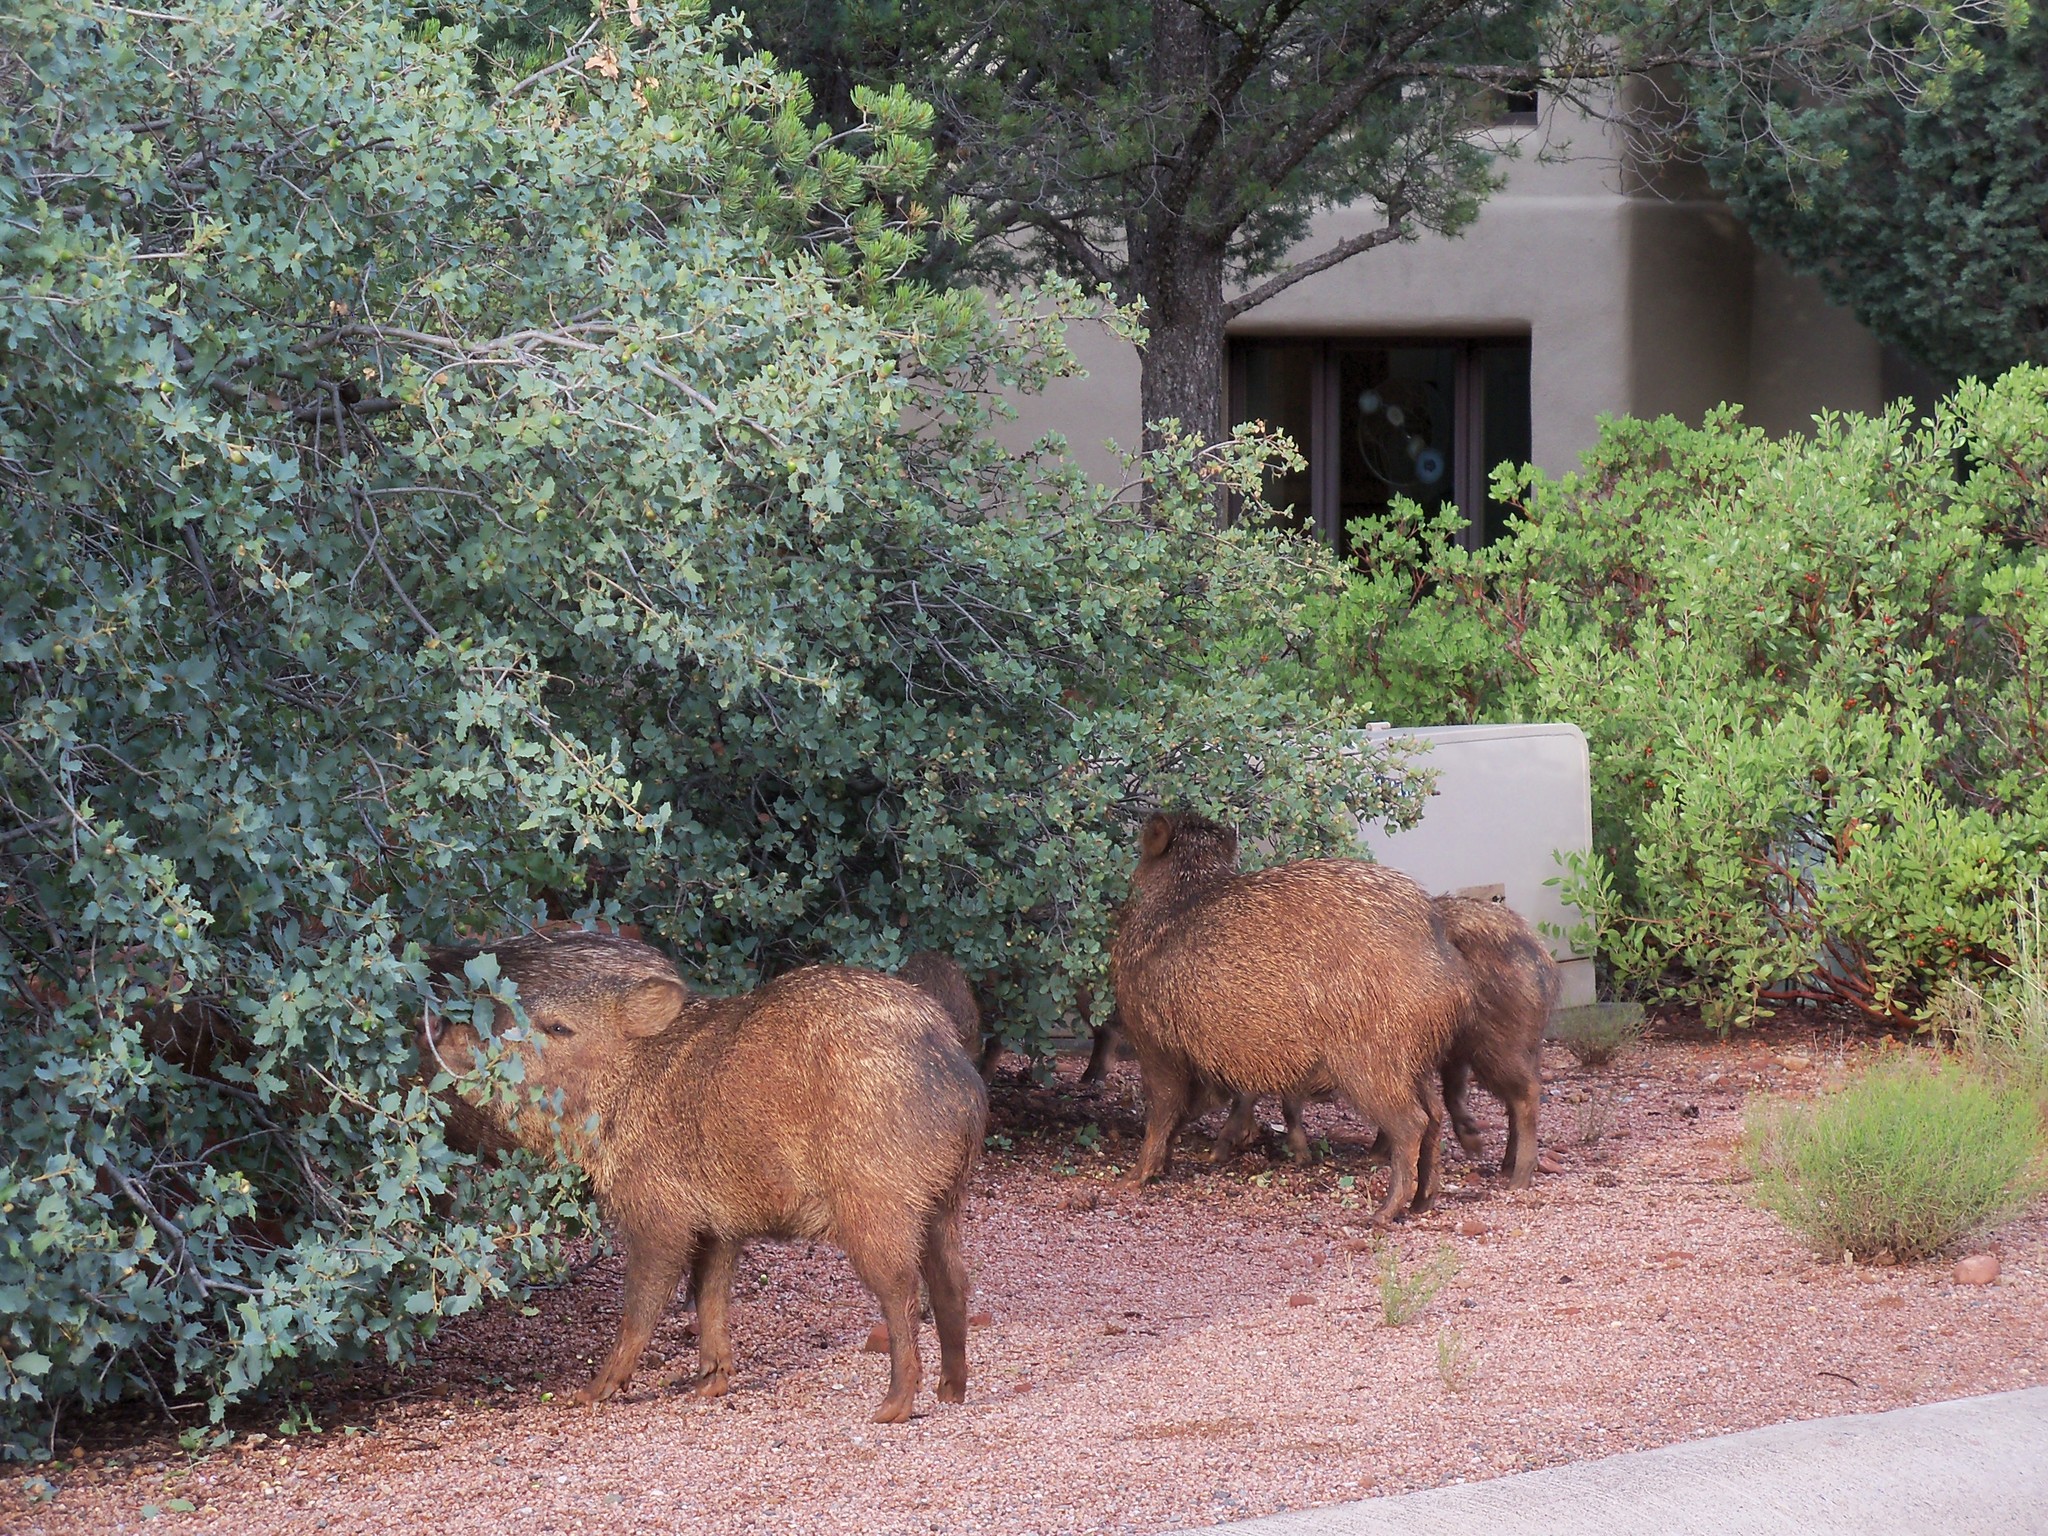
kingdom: Animalia
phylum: Chordata
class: Mammalia
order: Artiodactyla
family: Tayassuidae
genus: Pecari
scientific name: Pecari tajacu
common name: Collared peccary
